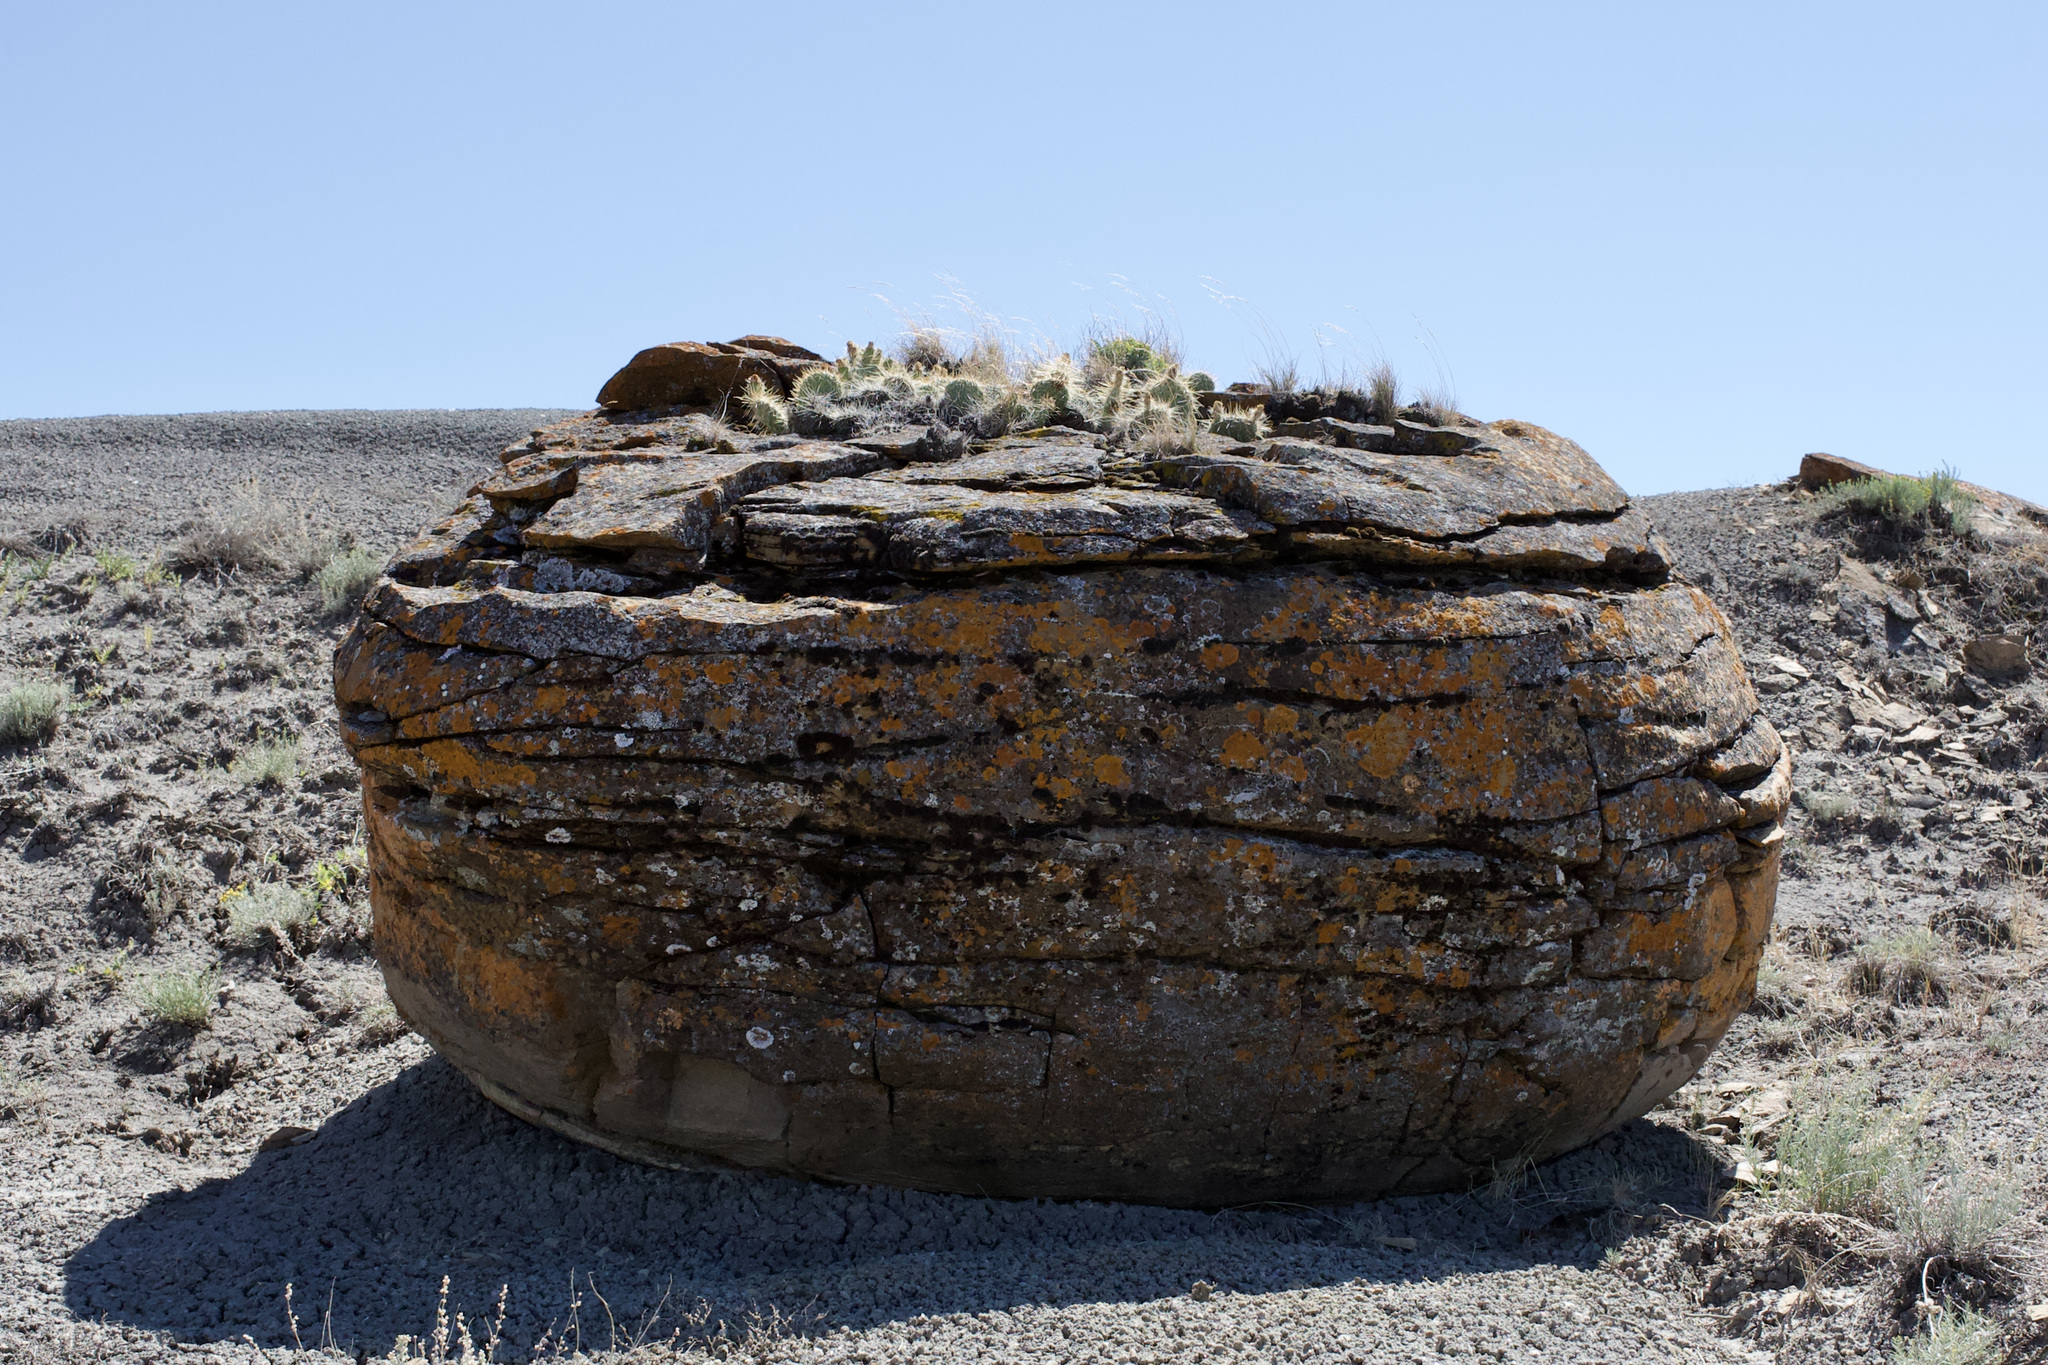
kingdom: Plantae
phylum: Tracheophyta
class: Magnoliopsida
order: Caryophyllales
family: Cactaceae
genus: Opuntia
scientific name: Opuntia polyacantha
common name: Plains prickly-pear
